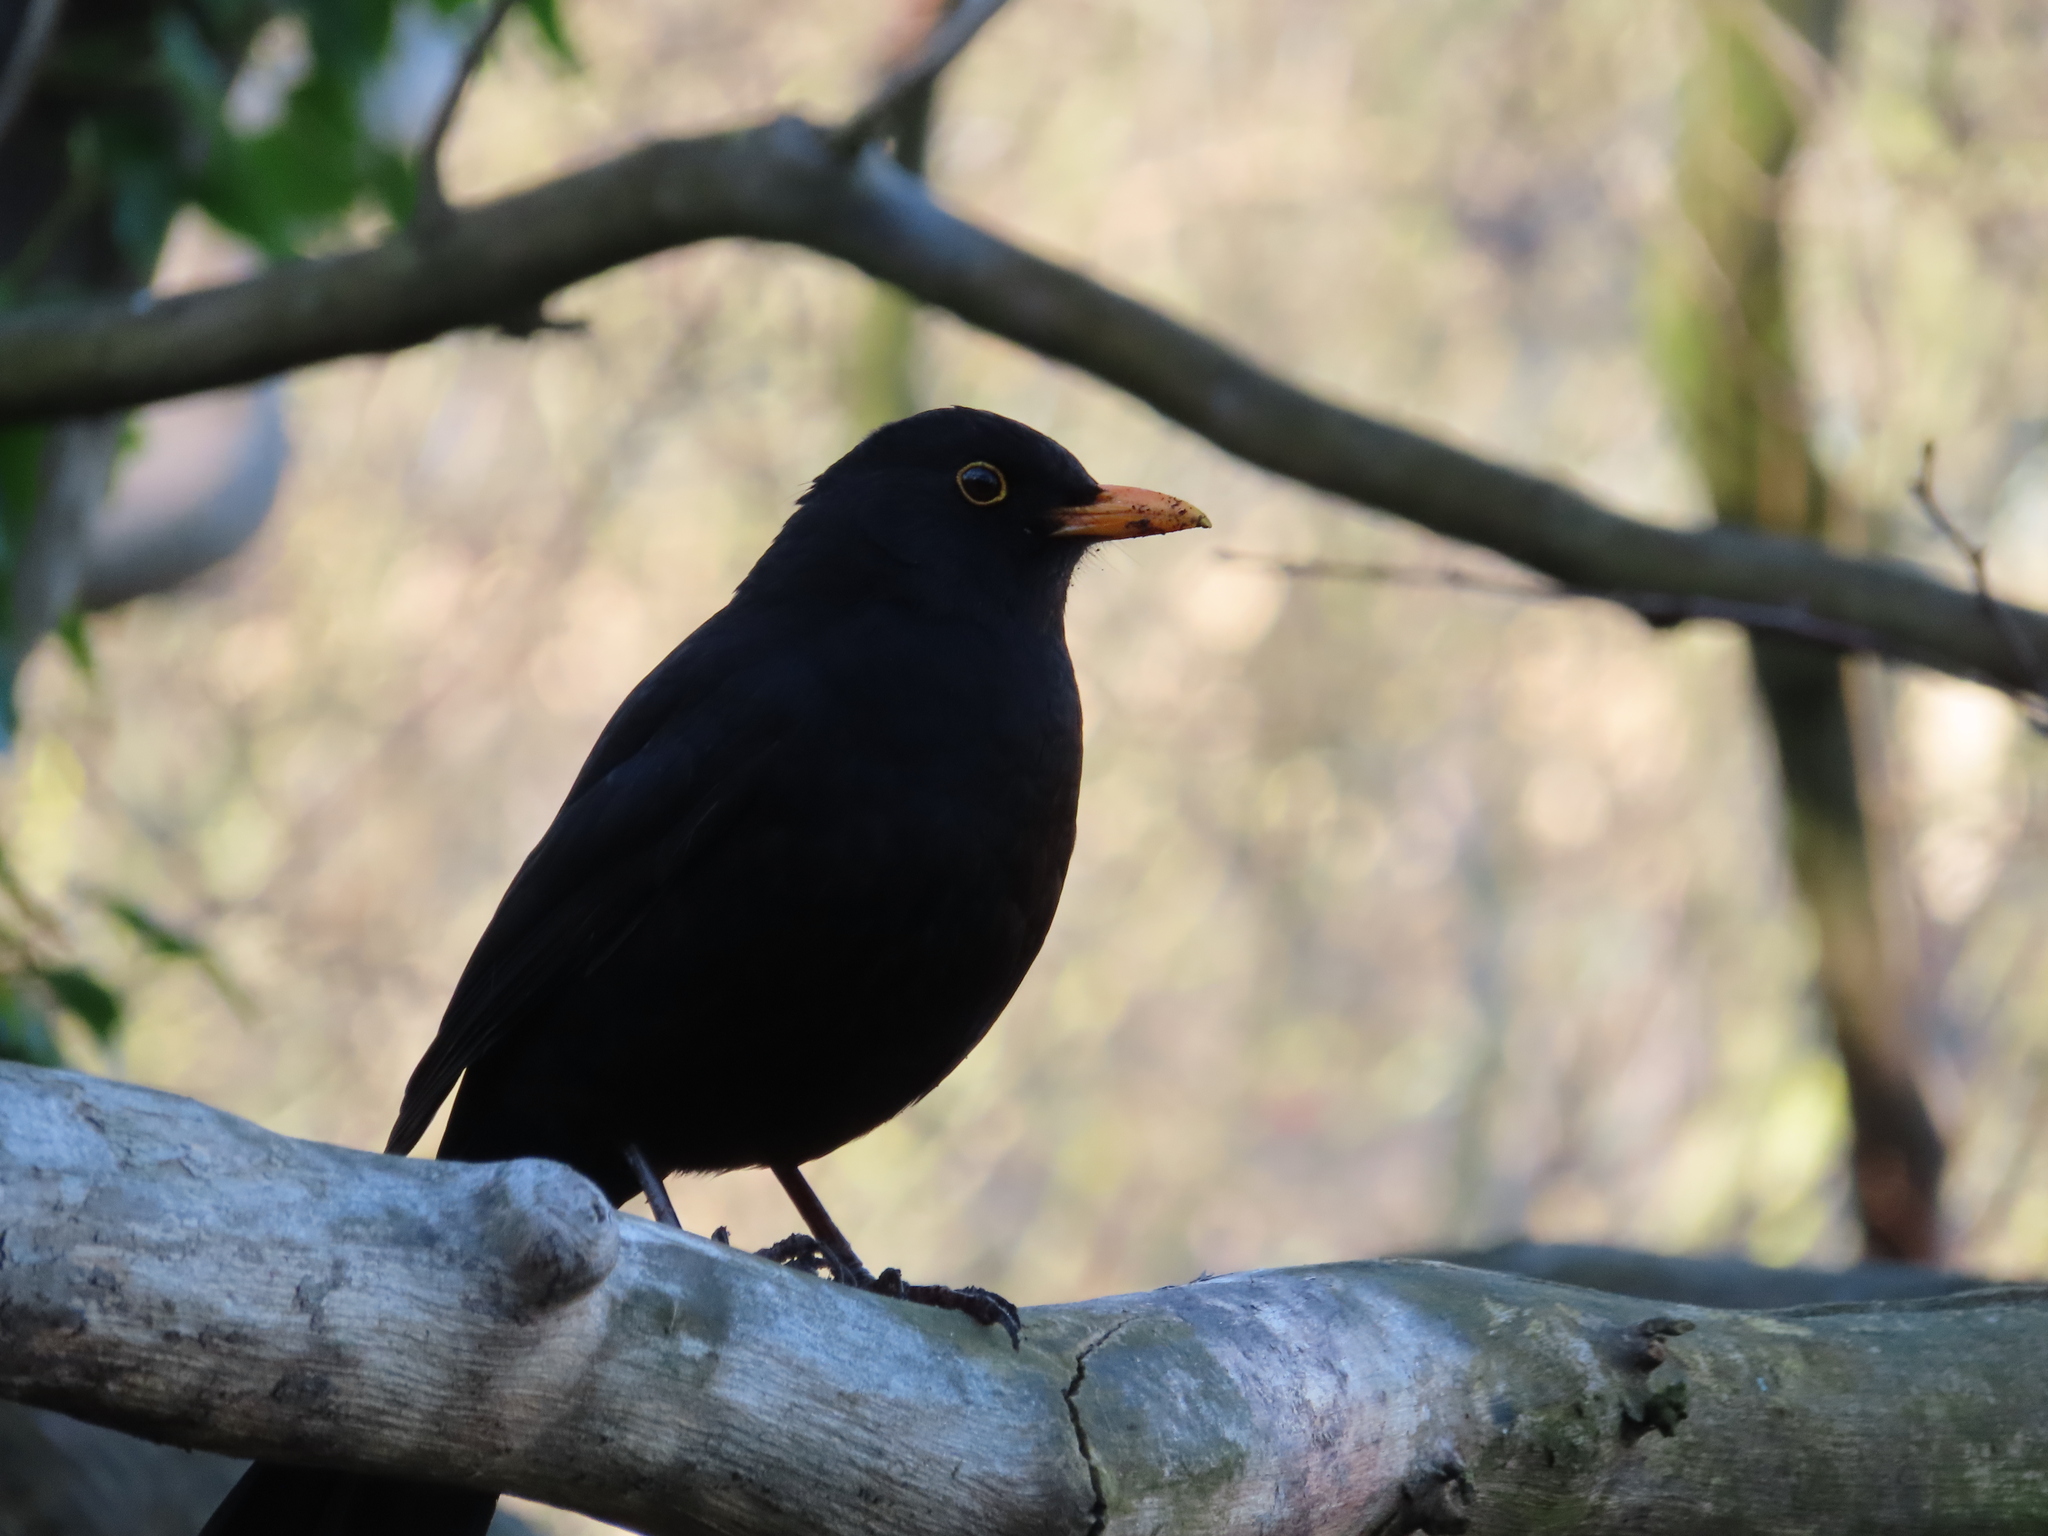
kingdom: Animalia
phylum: Chordata
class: Aves
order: Passeriformes
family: Turdidae
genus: Turdus
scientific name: Turdus merula
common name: Common blackbird
